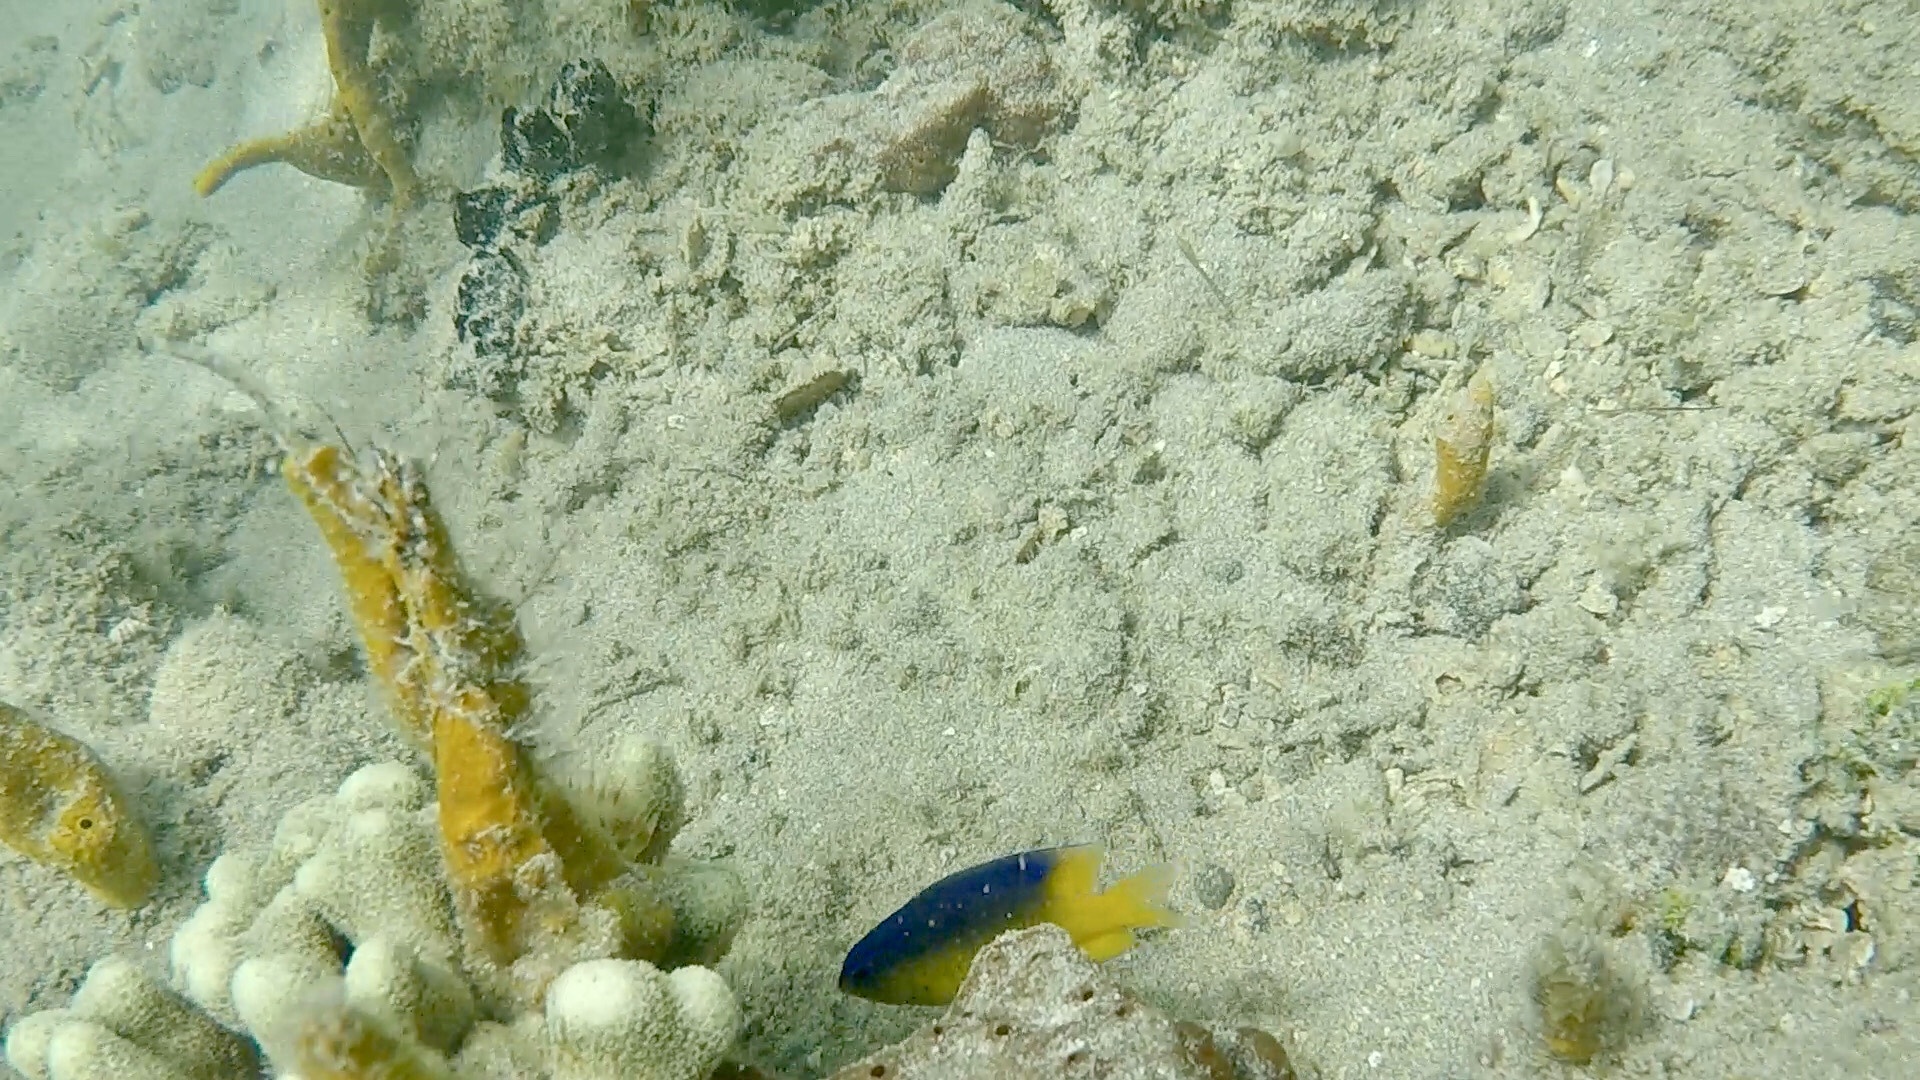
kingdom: Animalia
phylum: Chordata
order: Perciformes
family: Pomacentridae
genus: Stegastes
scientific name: Stegastes leucostictus
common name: Beaugregory
